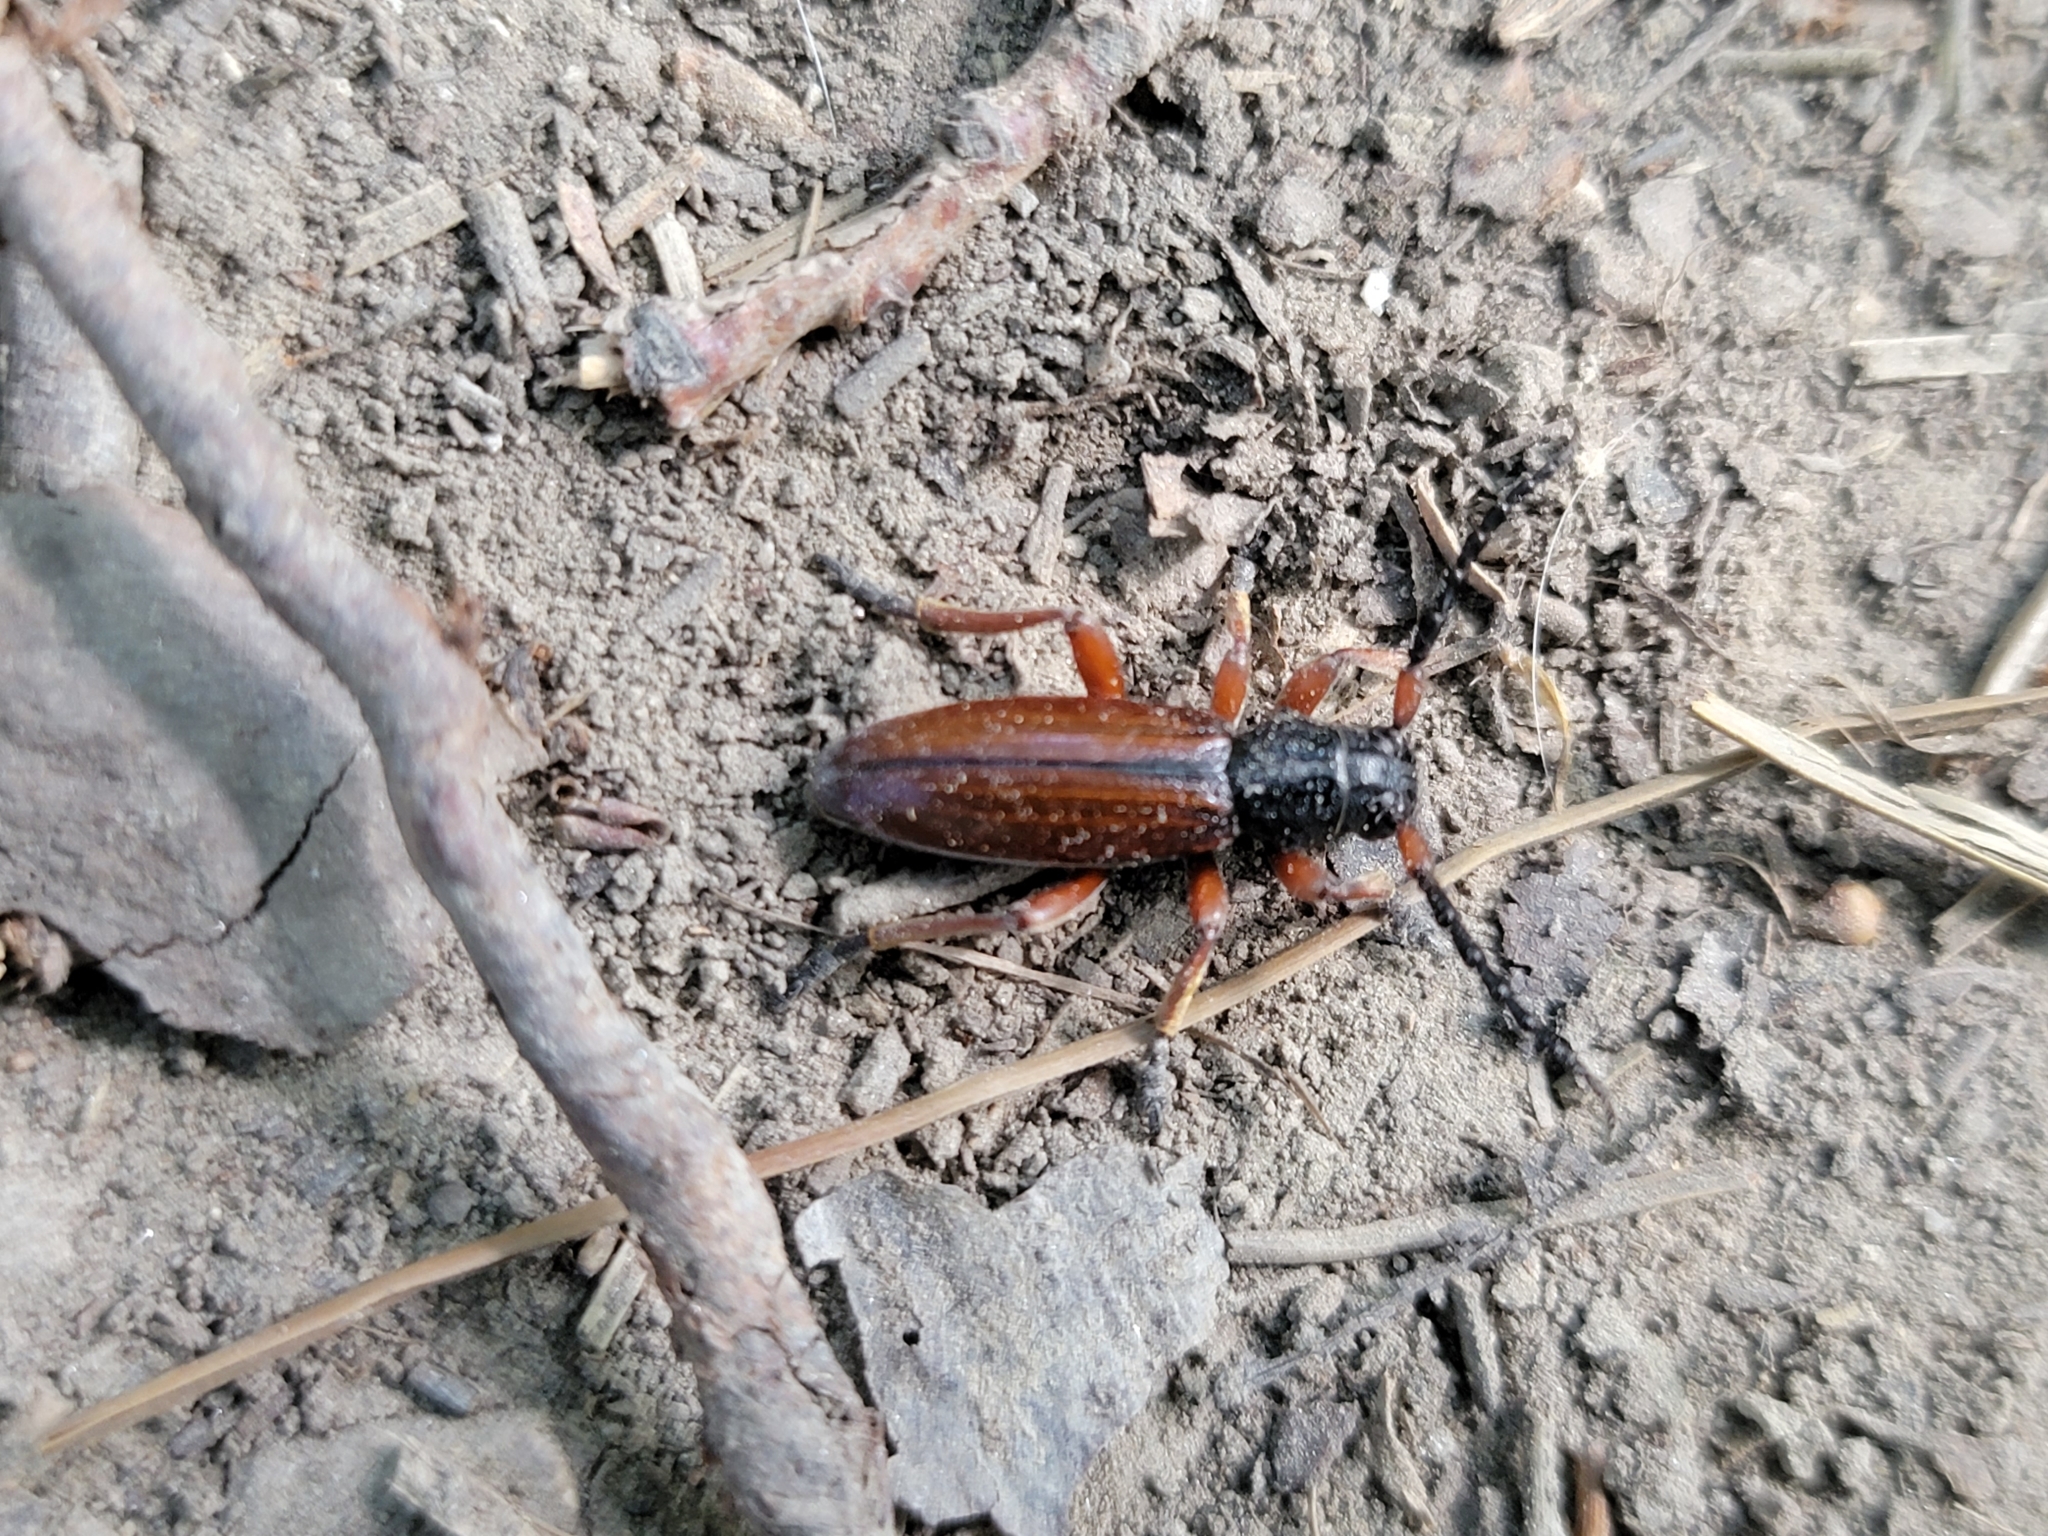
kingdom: Animalia
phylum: Arthropoda
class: Insecta
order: Coleoptera
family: Cerambycidae
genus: Dorcadion
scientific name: Dorcadion fulvum
